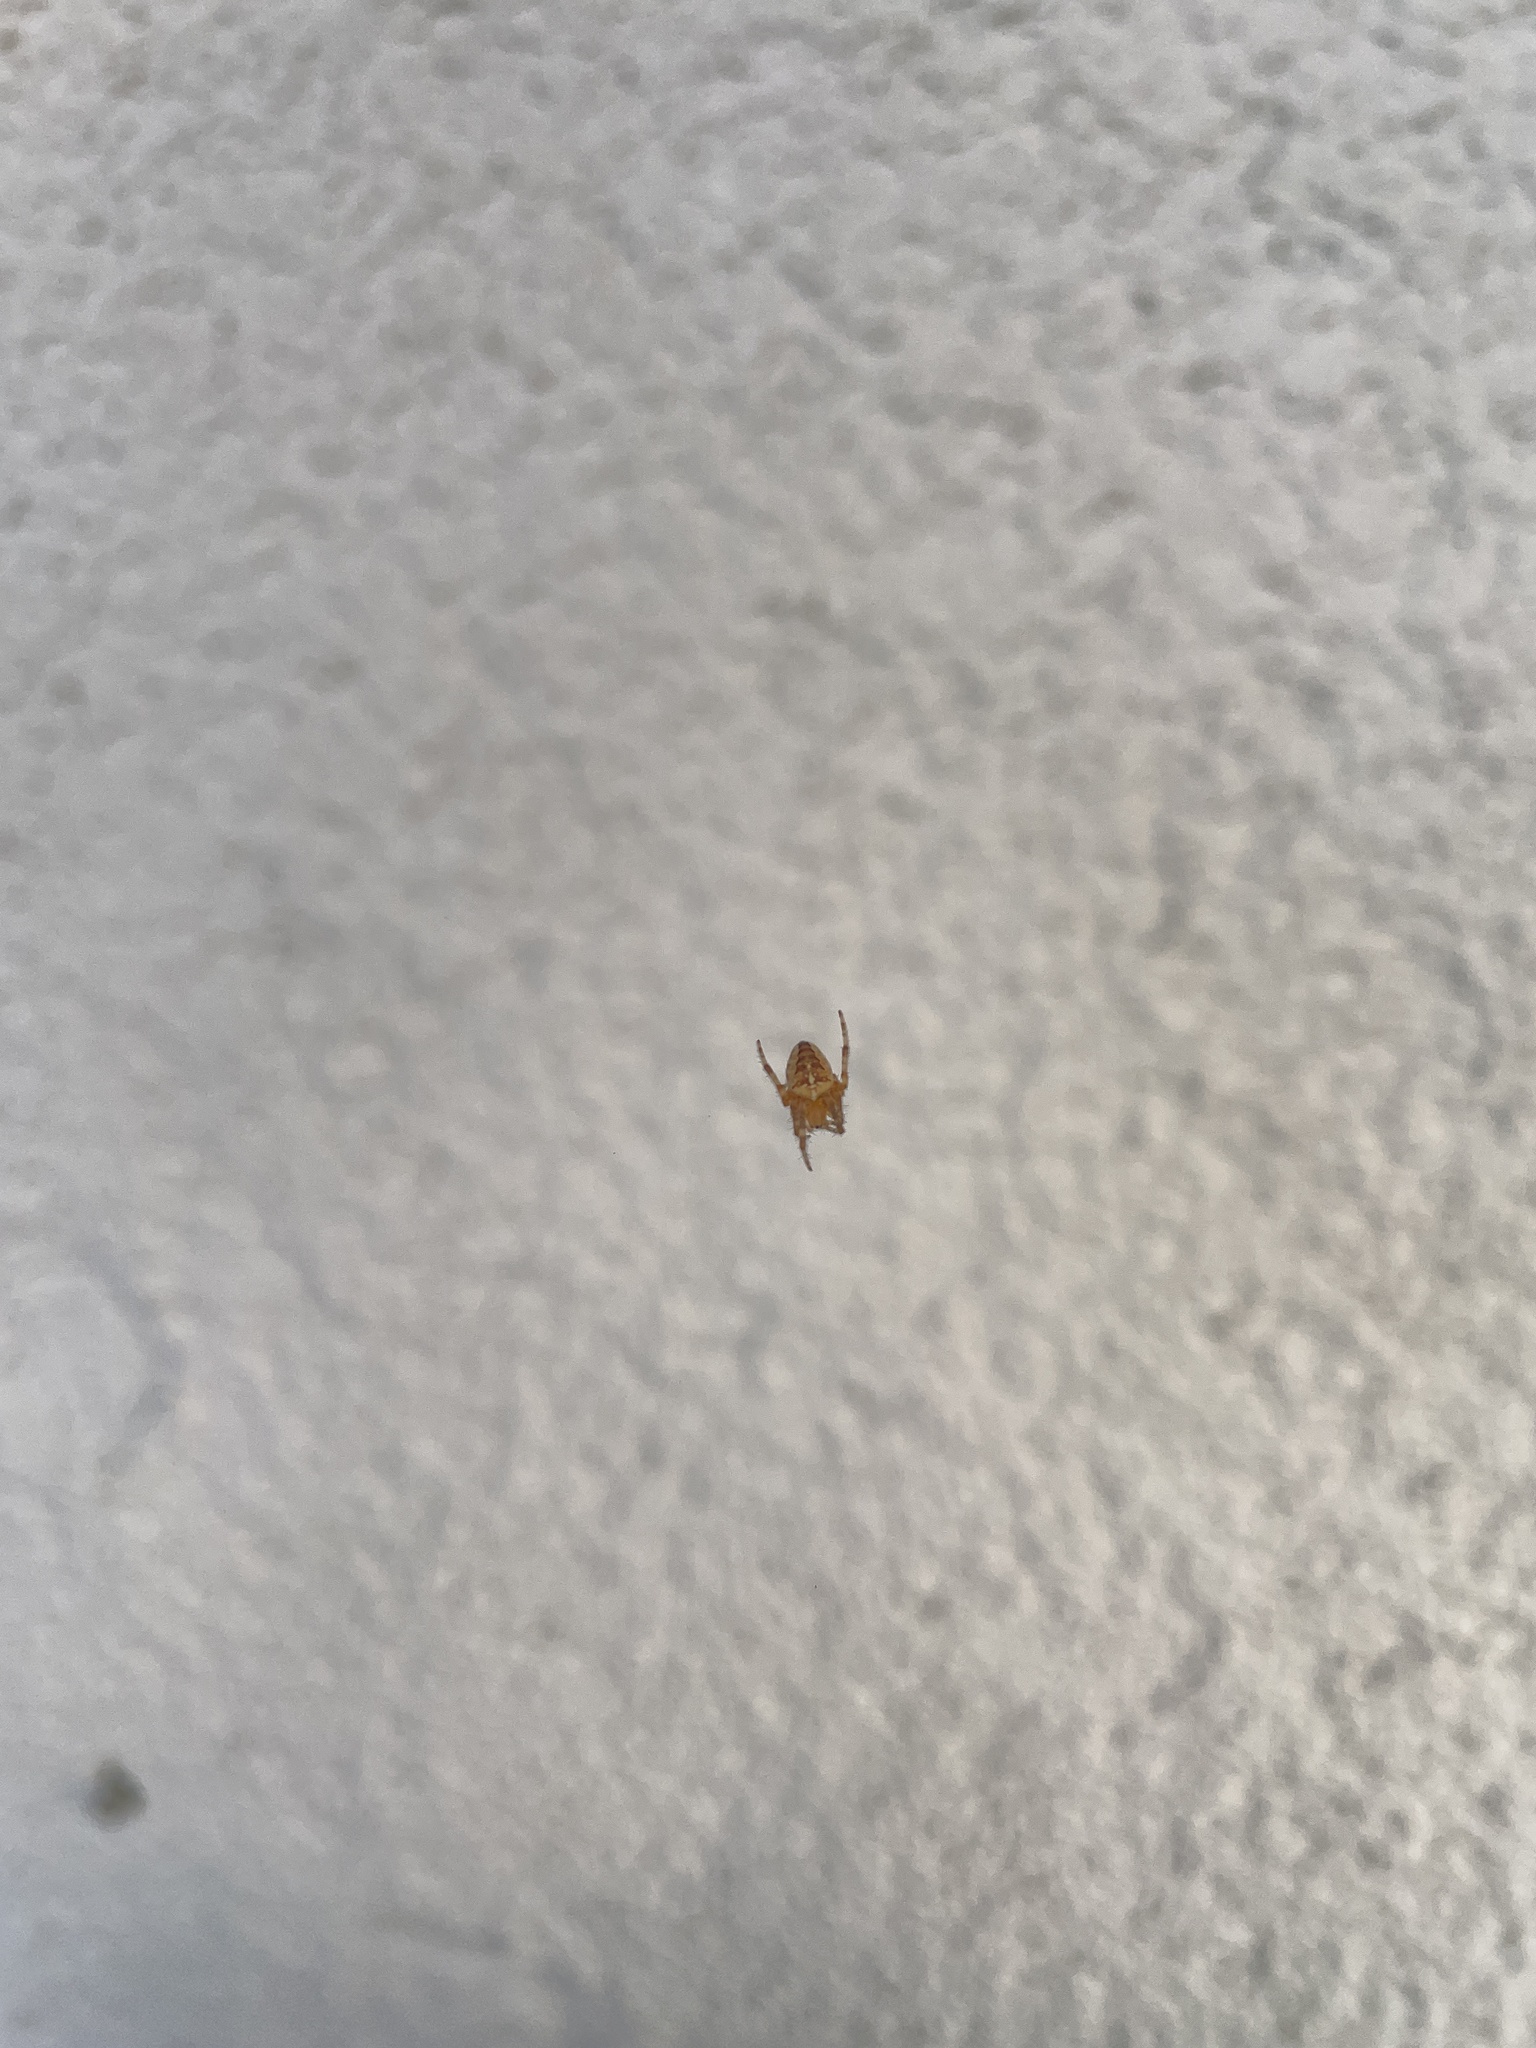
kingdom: Animalia
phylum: Arthropoda
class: Arachnida
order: Araneae
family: Araneidae
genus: Araneus
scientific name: Araneus diadematus
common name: Cross orbweaver
